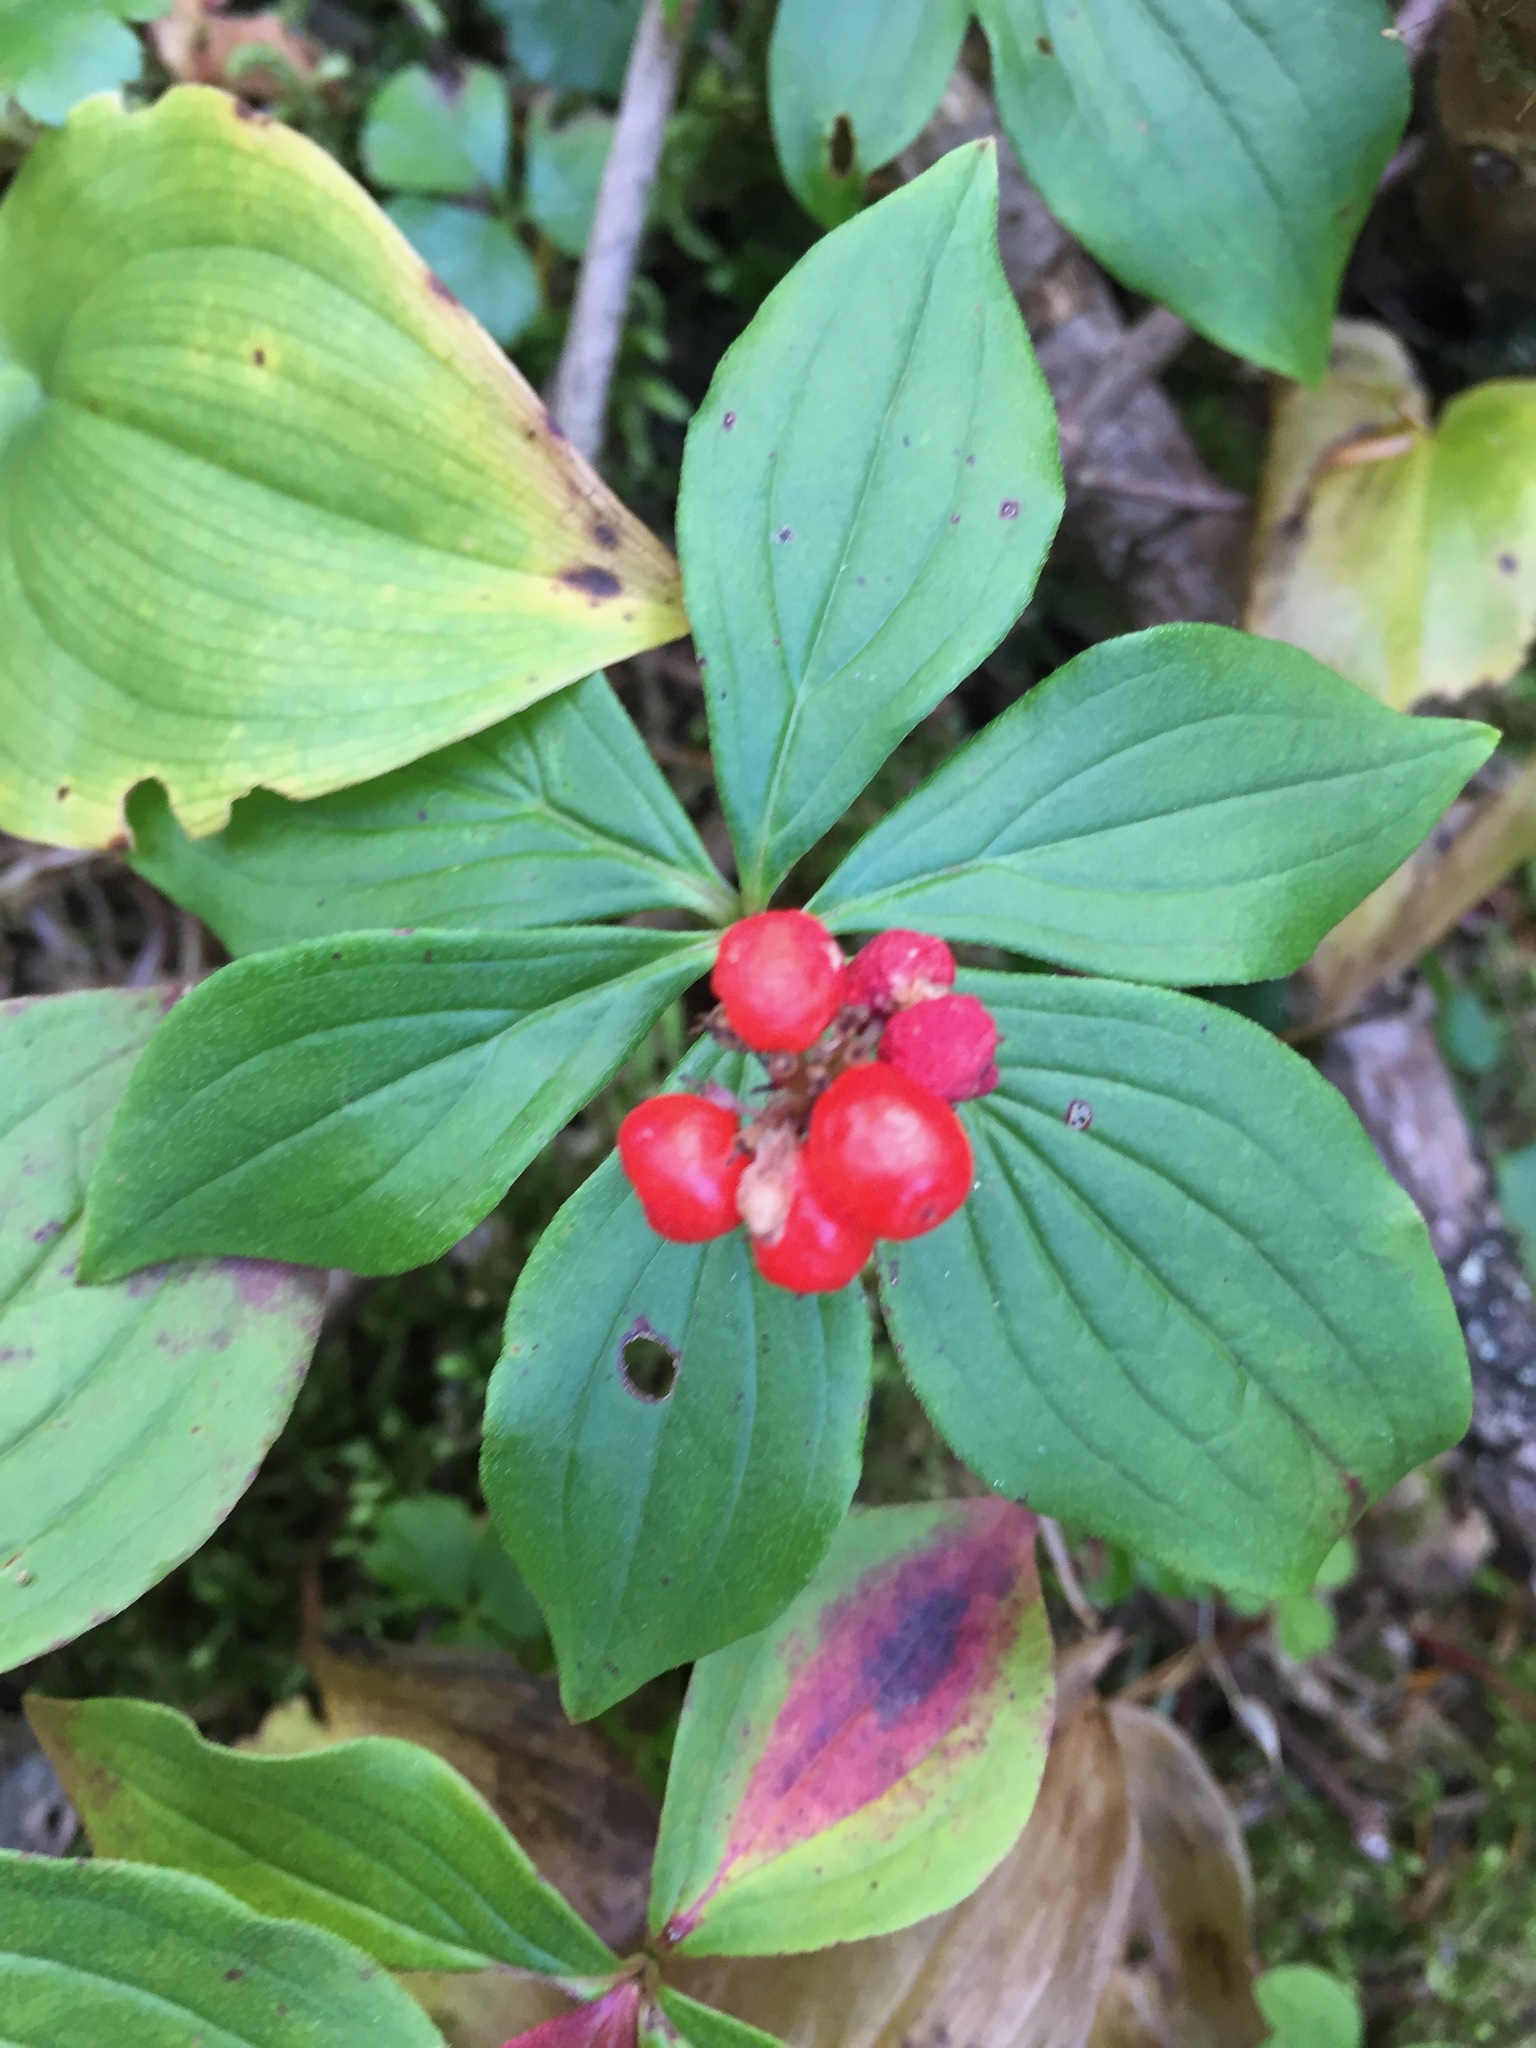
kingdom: Plantae
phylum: Tracheophyta
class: Magnoliopsida
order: Cornales
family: Cornaceae
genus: Cornus
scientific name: Cornus canadensis
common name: Creeping dogwood
